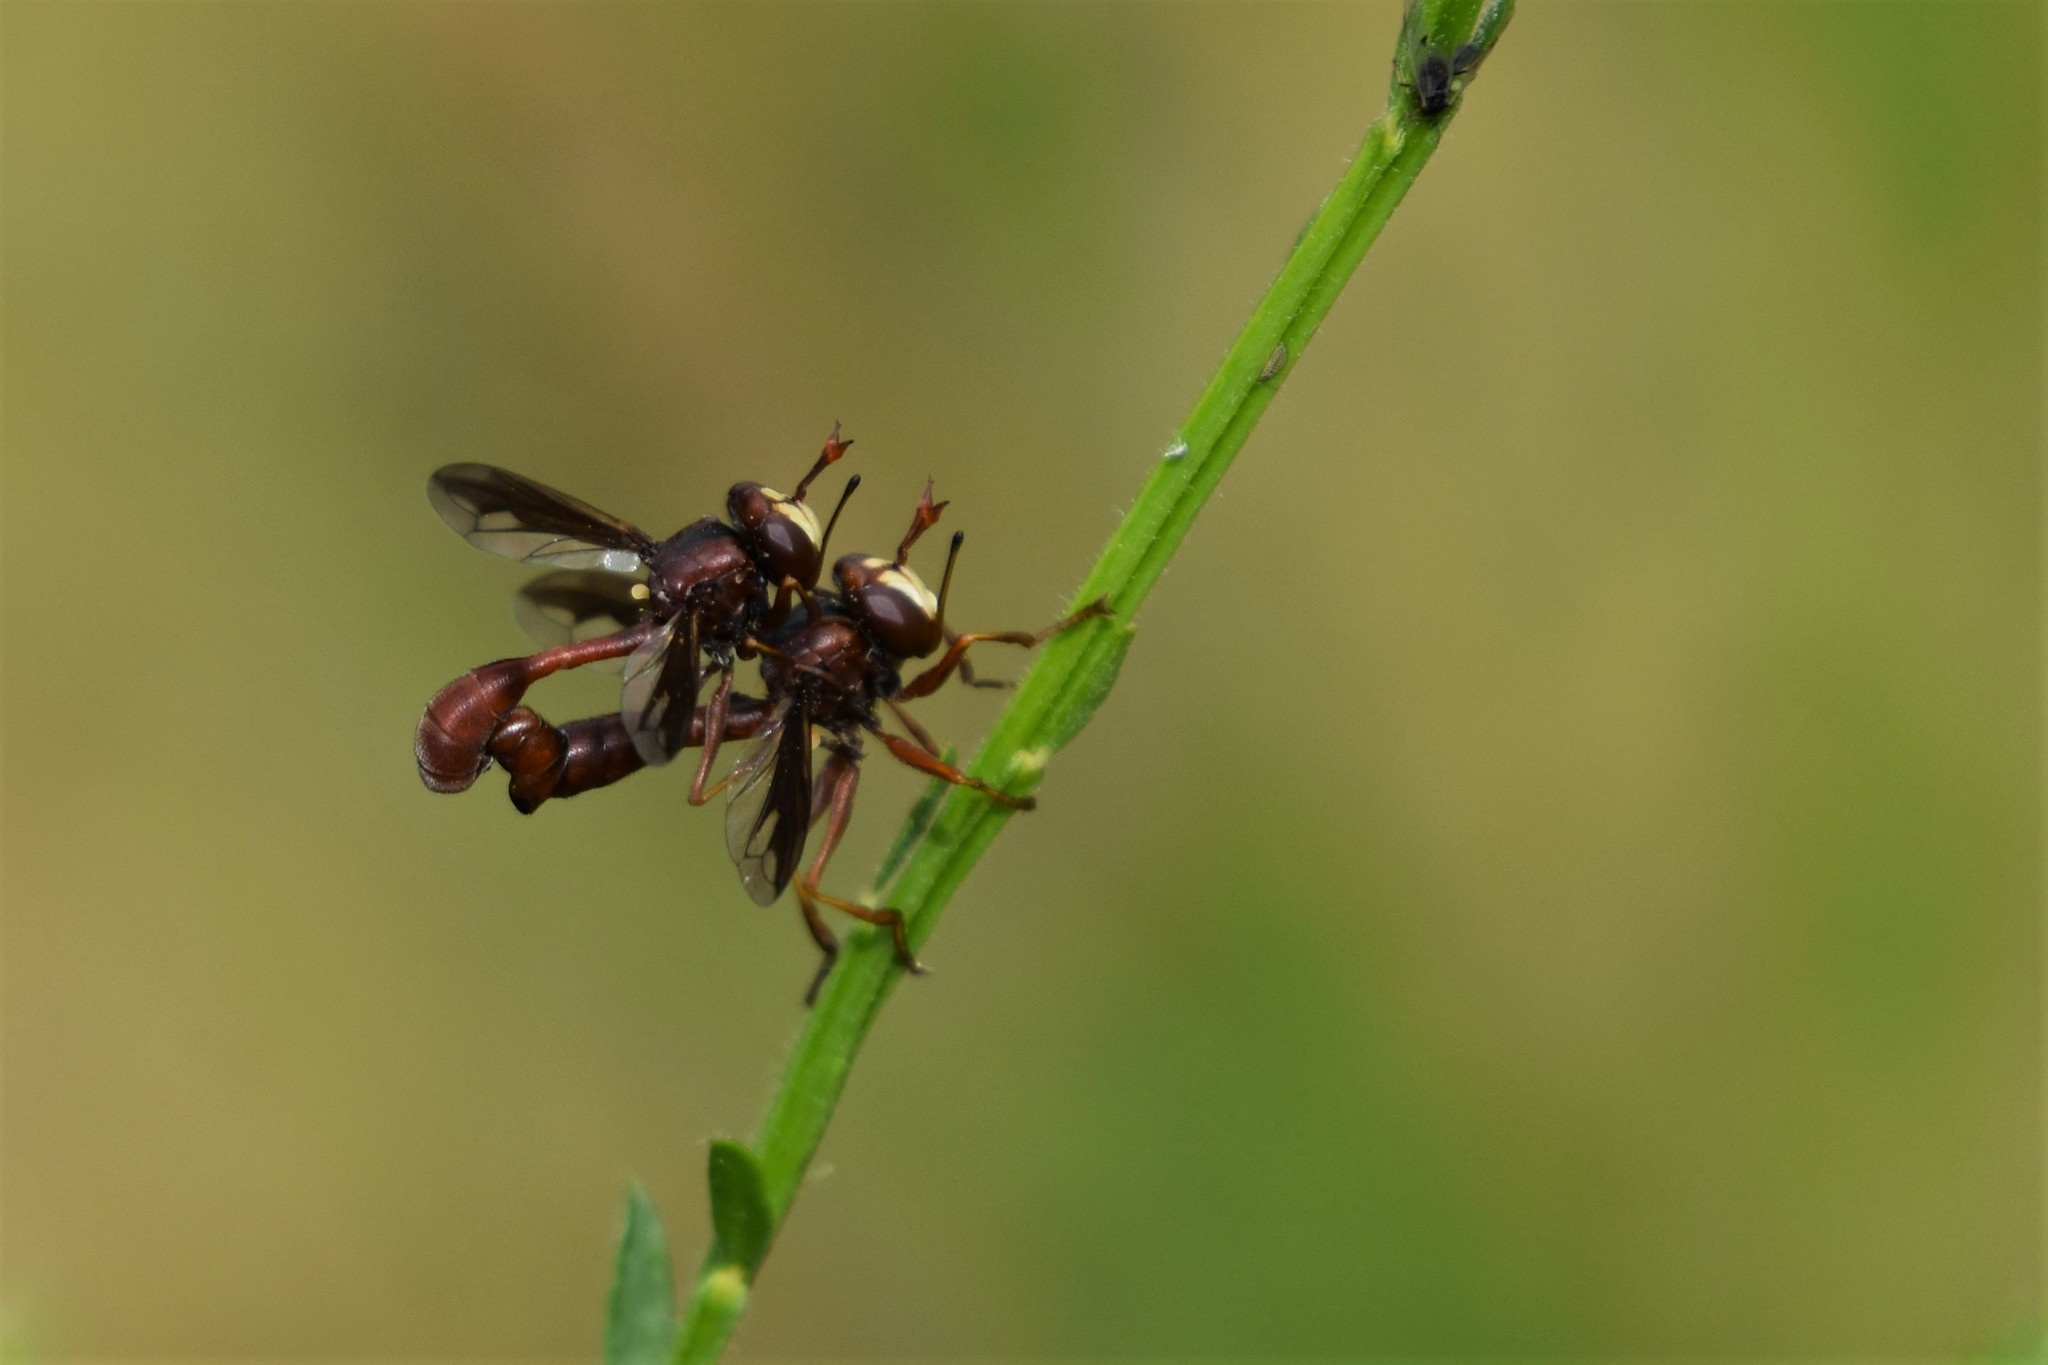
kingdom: Animalia
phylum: Arthropoda
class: Insecta
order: Diptera
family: Conopidae
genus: Physocephala
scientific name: Physocephala burgessi
